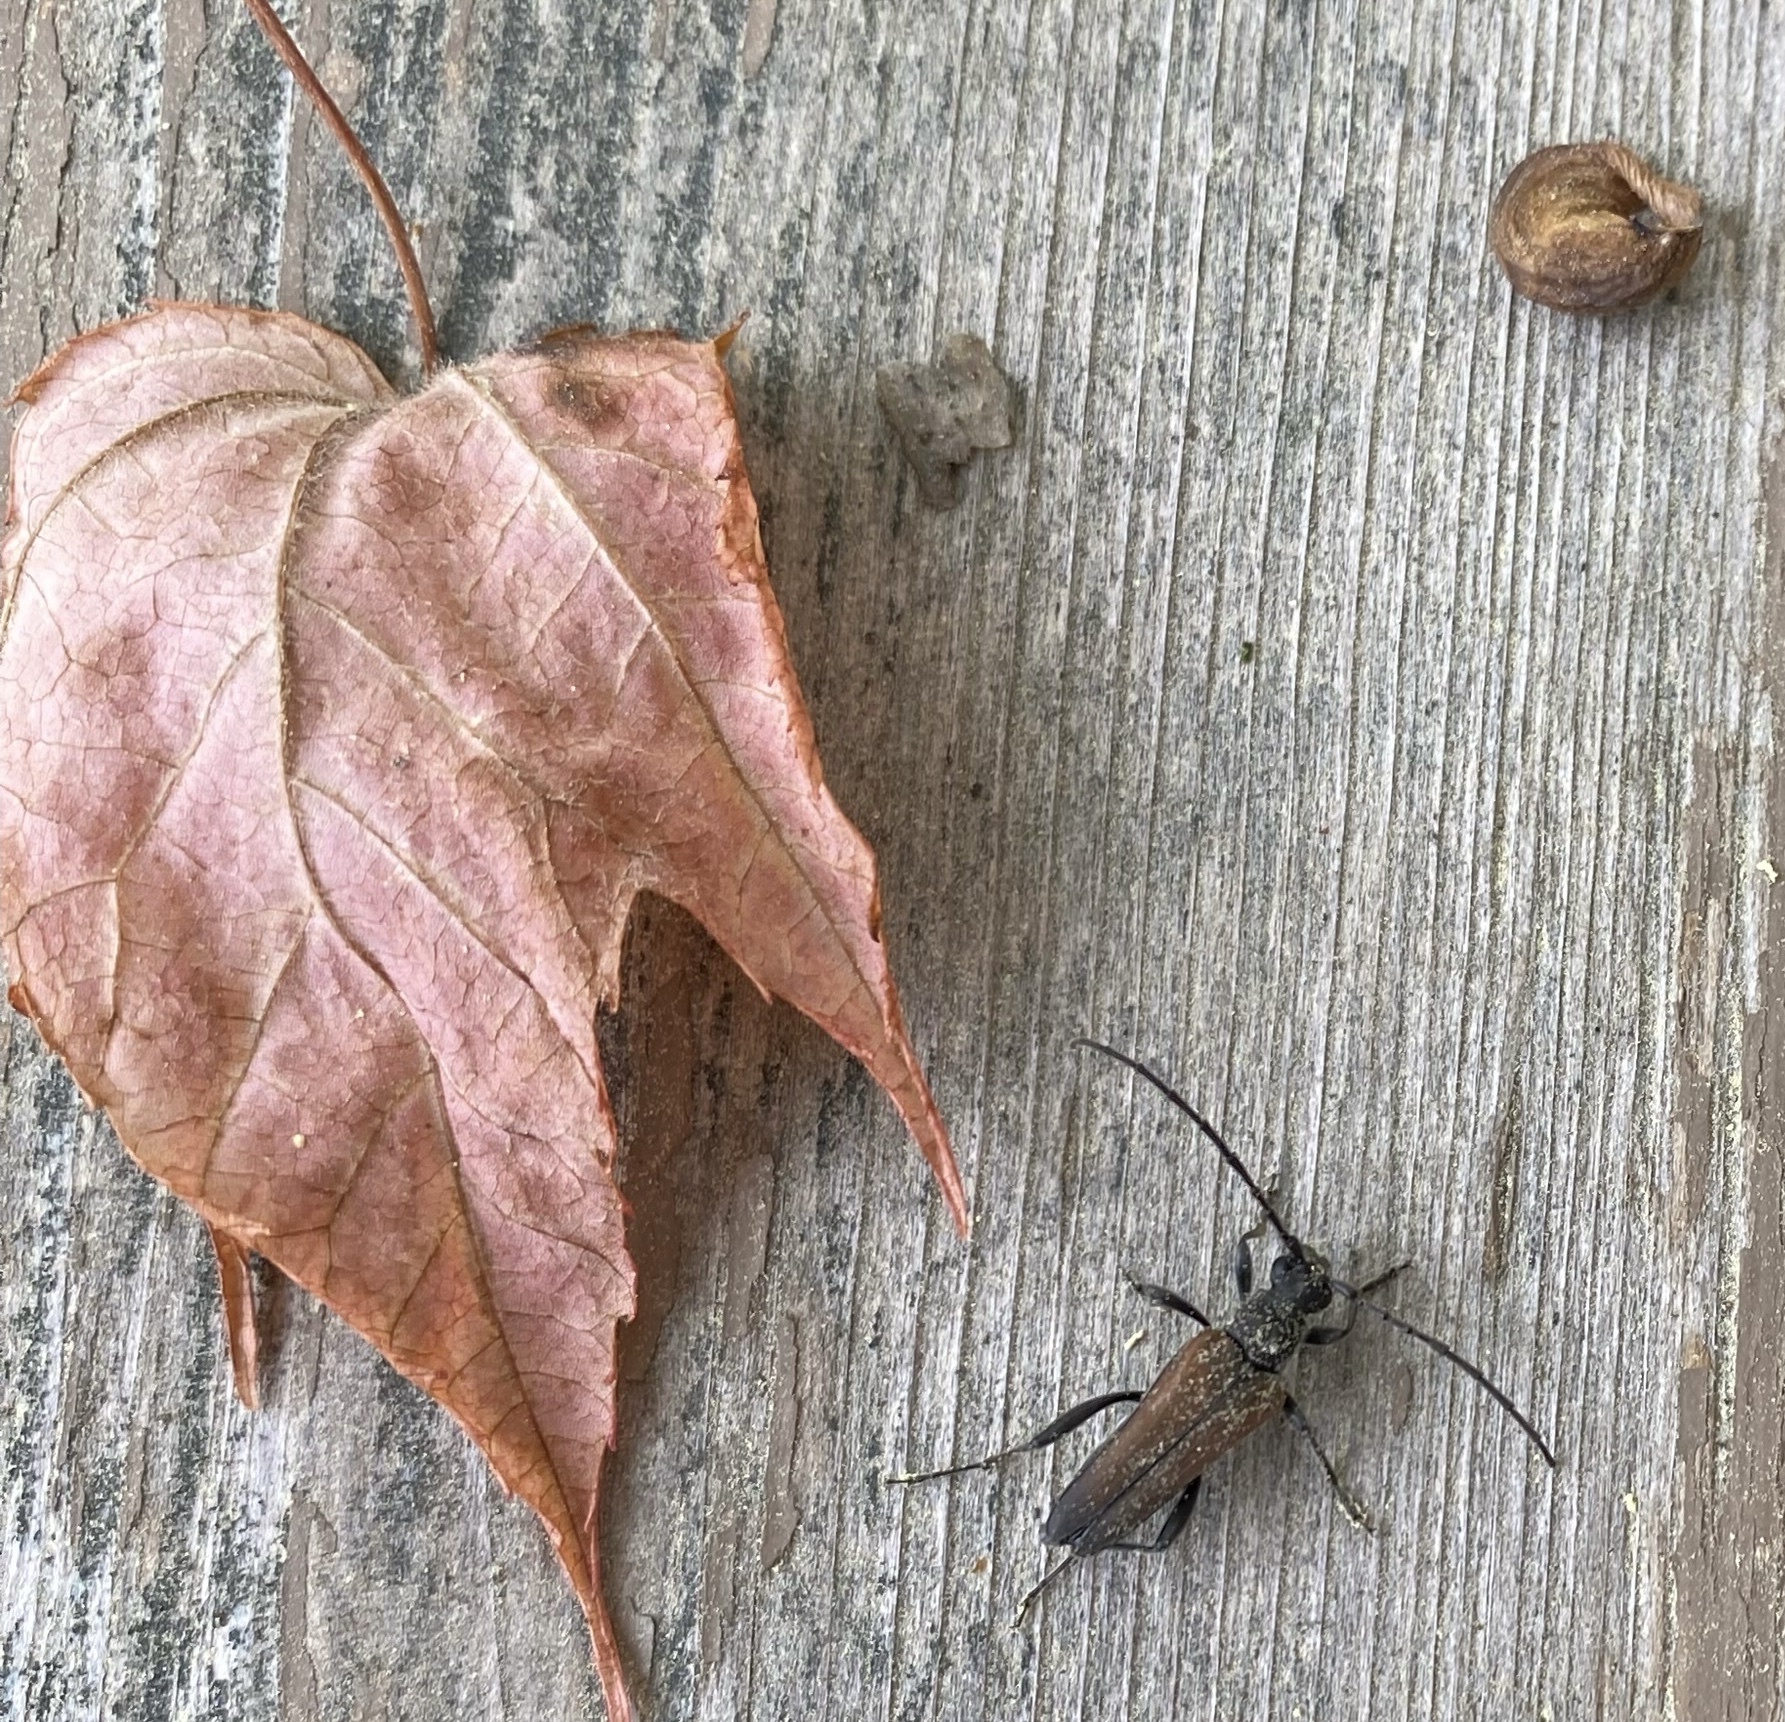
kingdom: Animalia
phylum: Arthropoda
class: Insecta
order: Coleoptera
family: Cerambycidae
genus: Trachysida
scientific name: Trachysida mutabilis
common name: Changeable flower longhorn
